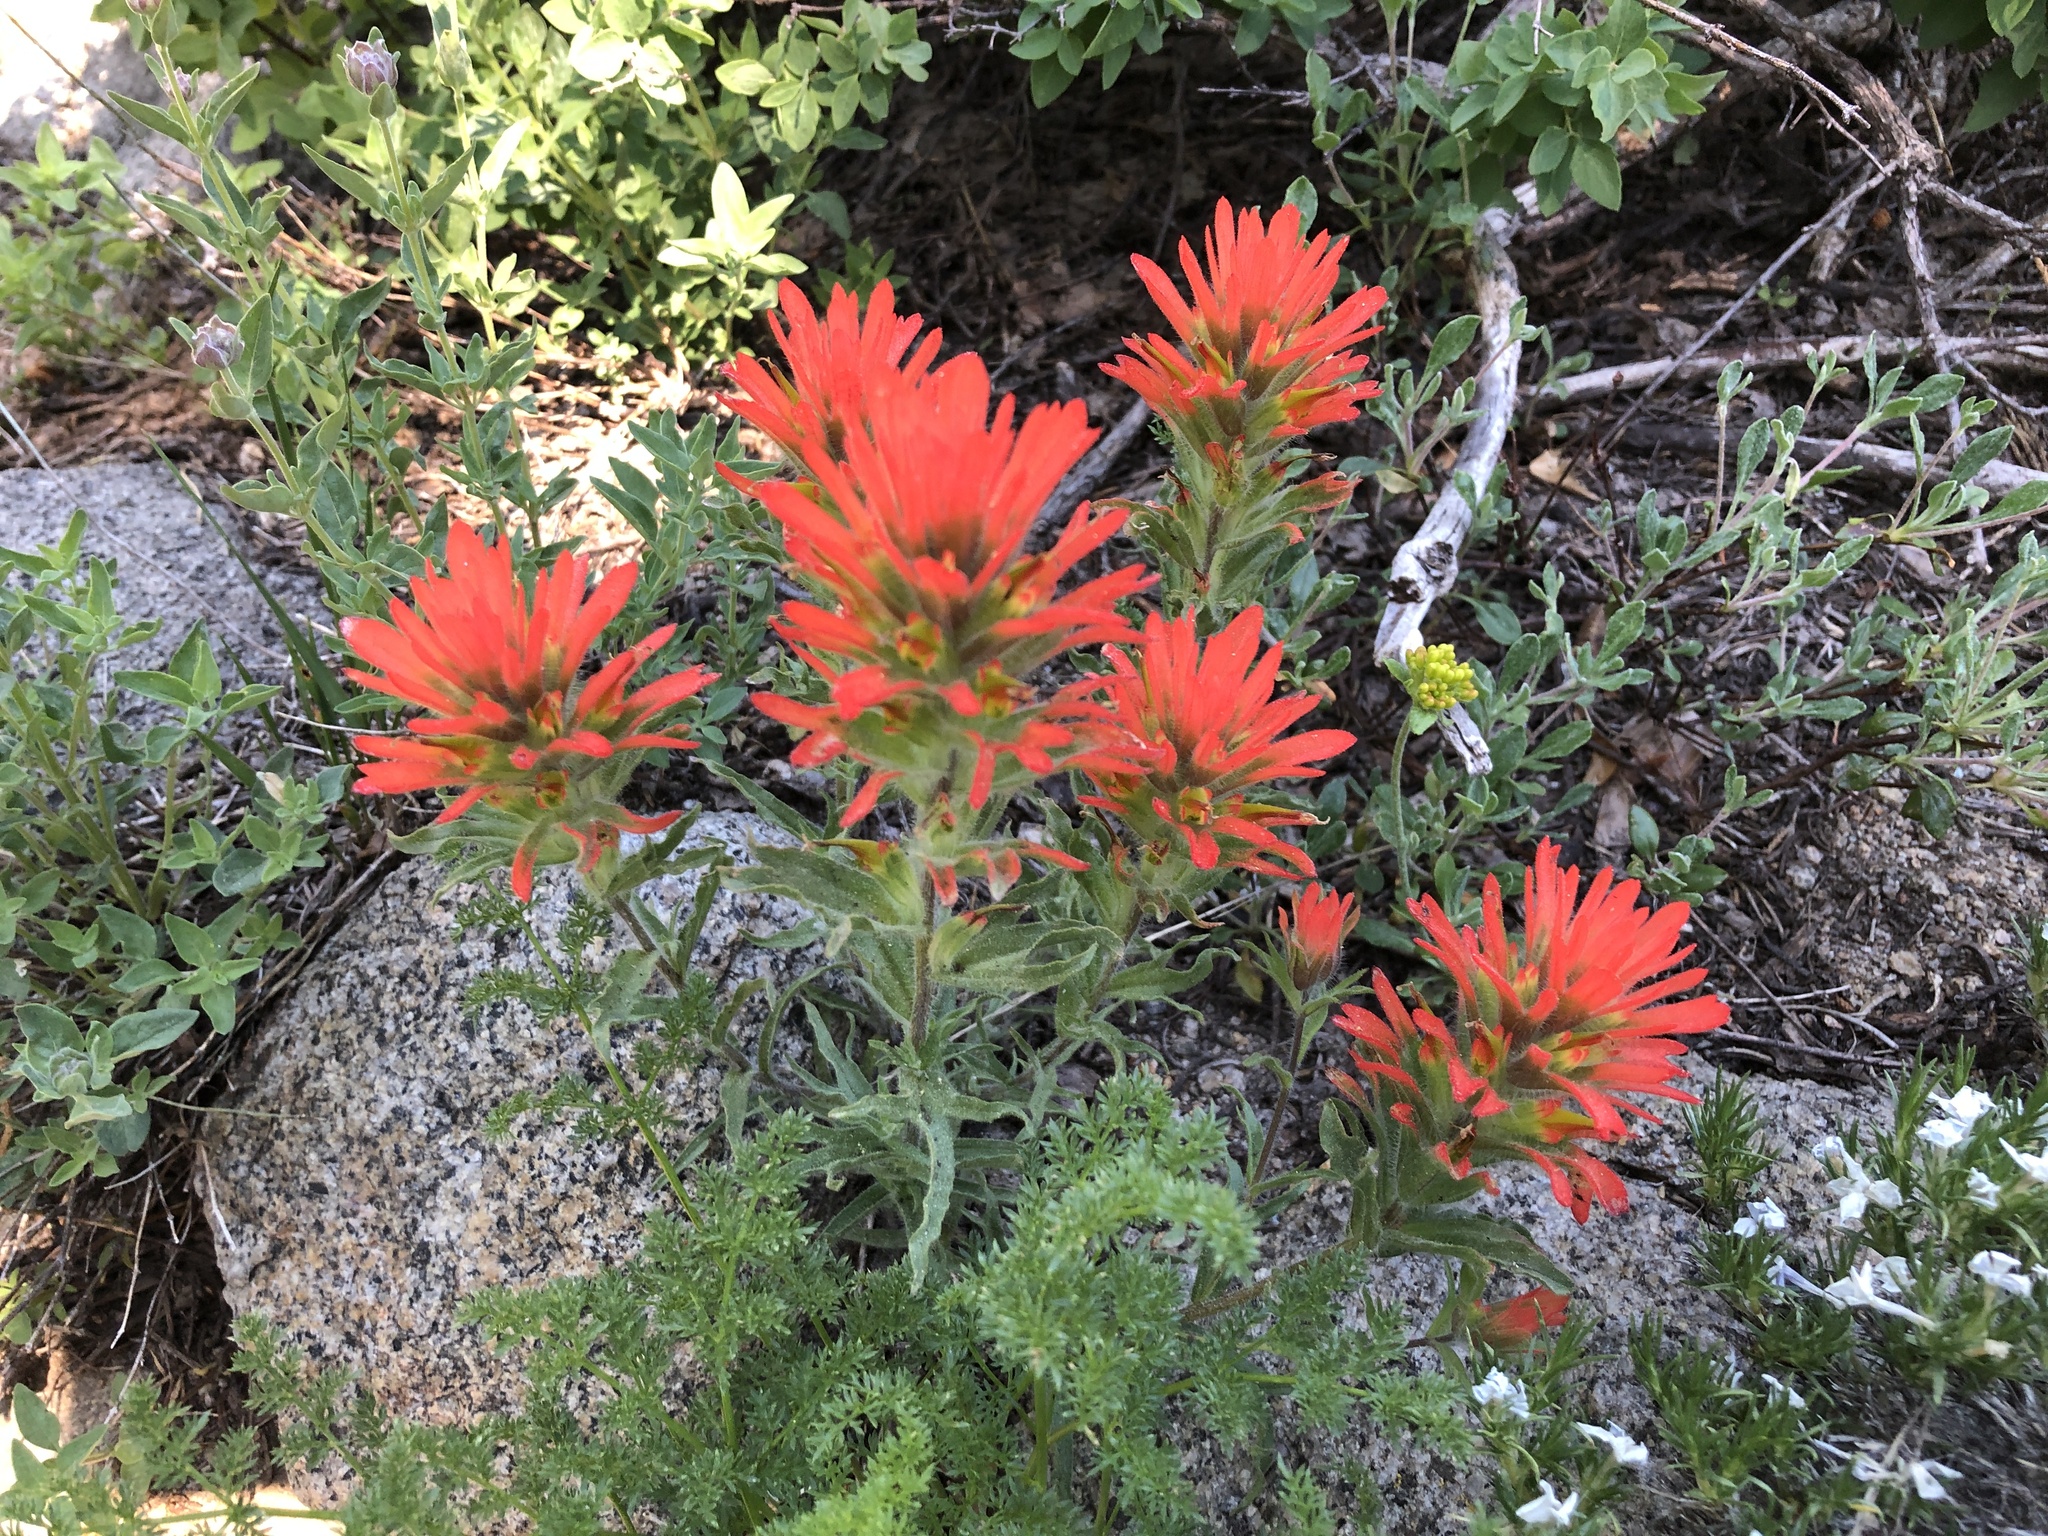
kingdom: Plantae
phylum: Tracheophyta
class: Magnoliopsida
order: Lamiales
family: Orobanchaceae
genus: Castilleja
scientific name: Castilleja applegatei
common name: Wavy-leaf paintbrush
